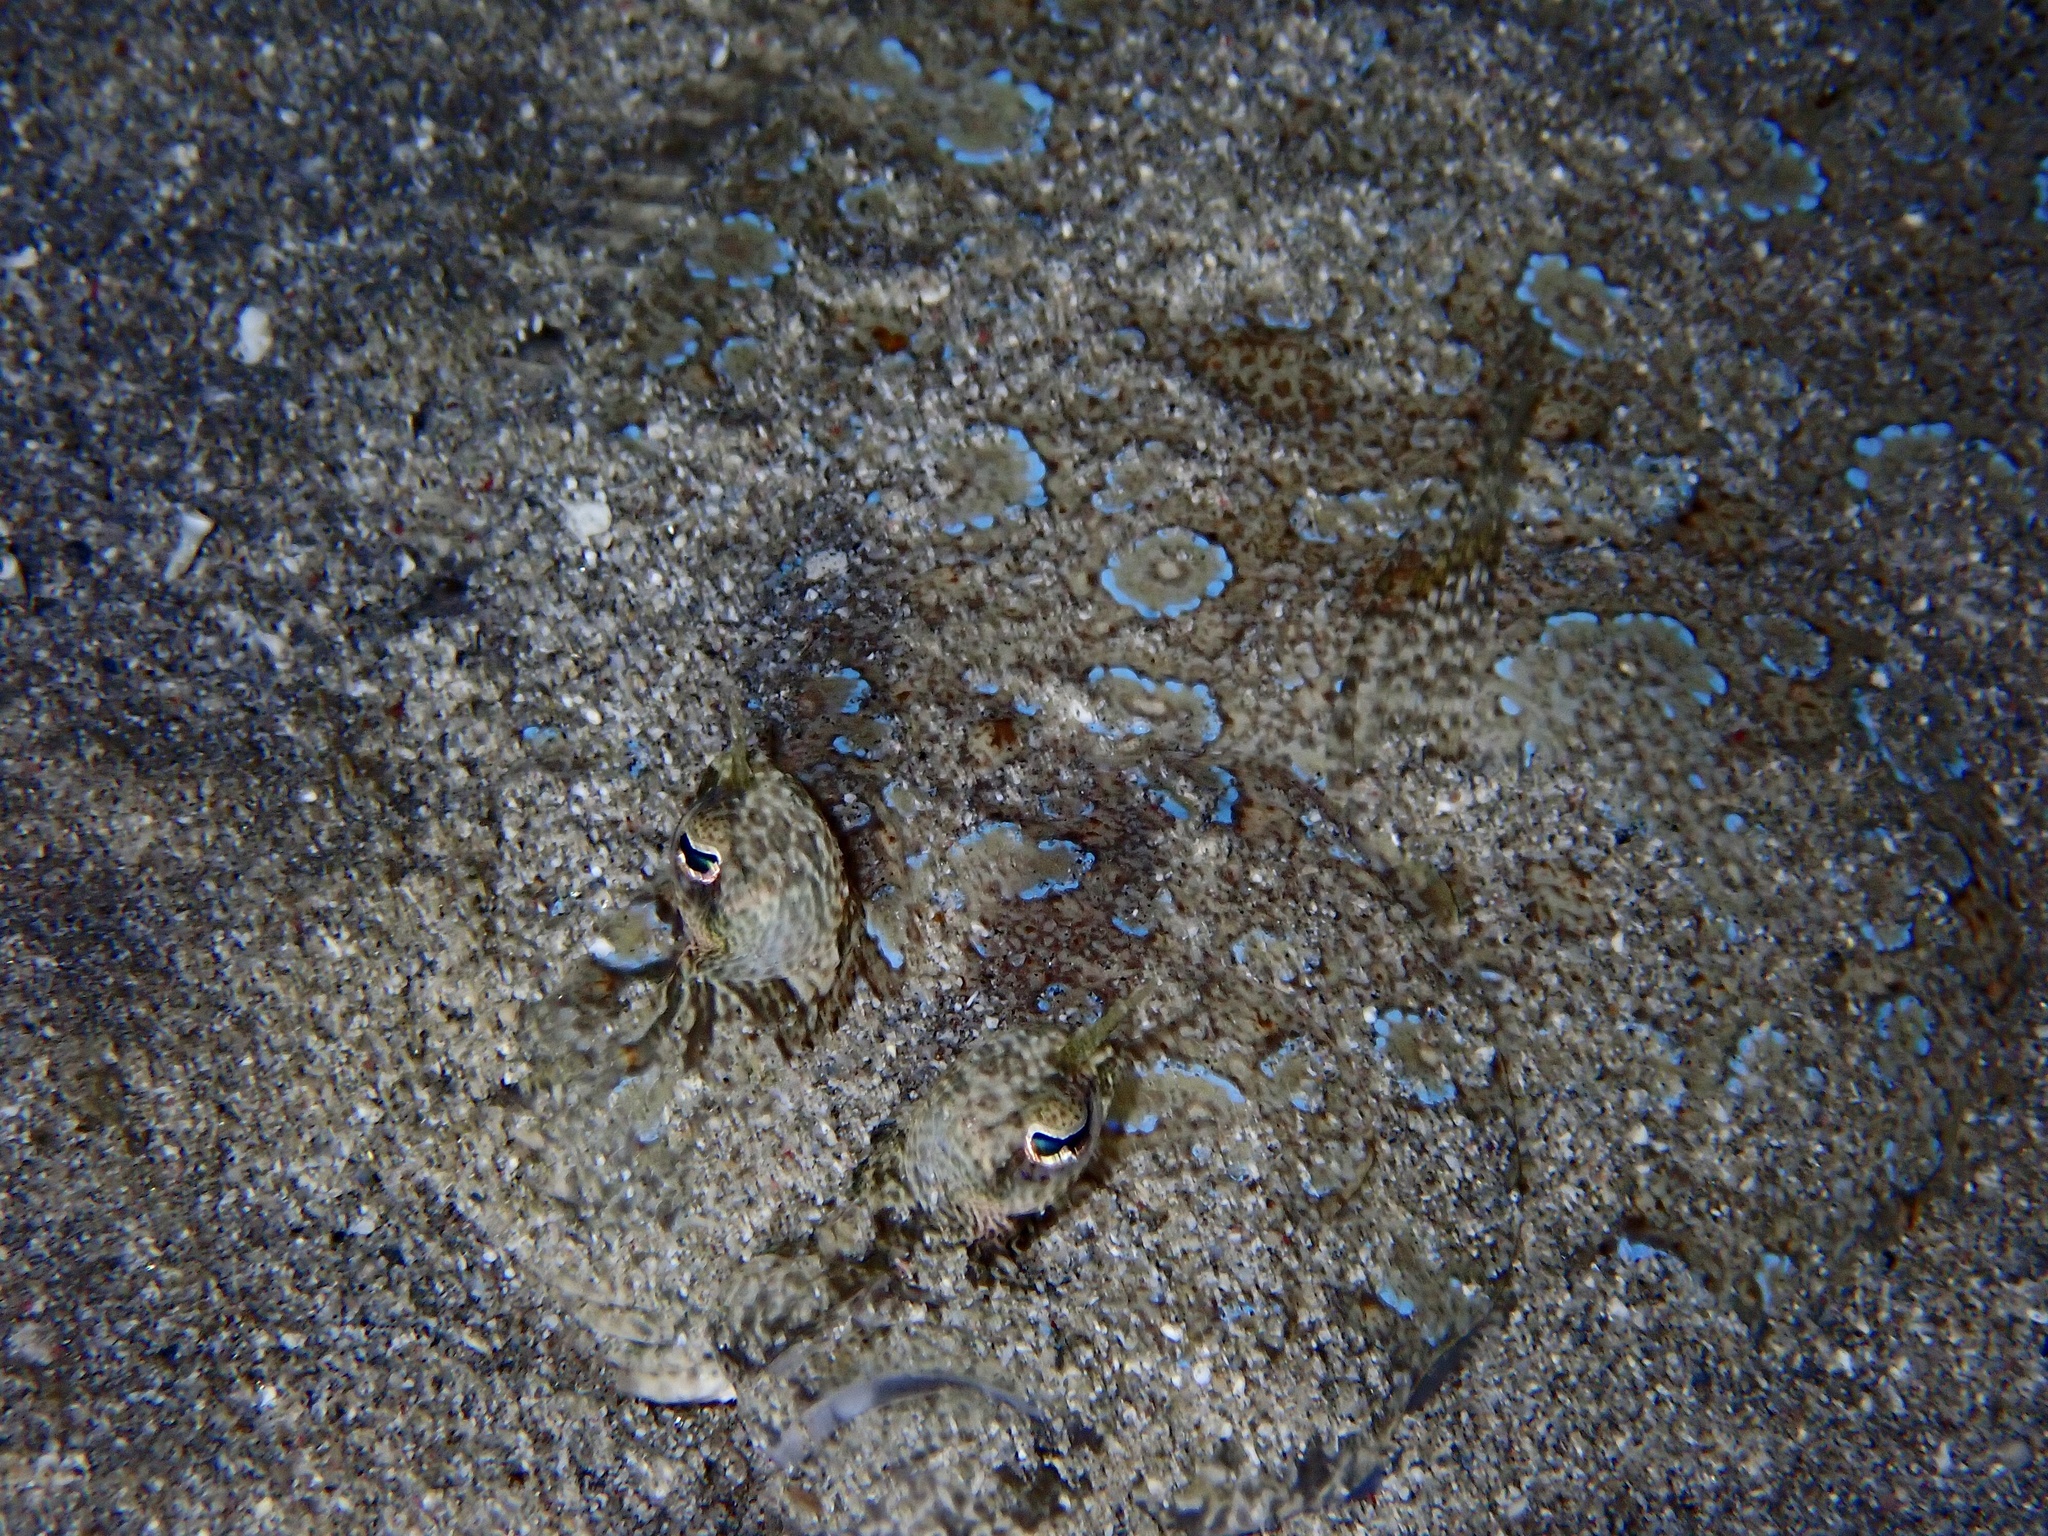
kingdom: Animalia
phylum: Chordata
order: Pleuronectiformes
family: Bothidae
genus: Bothus
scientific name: Bothus pantherinus
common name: Leopard flounder
